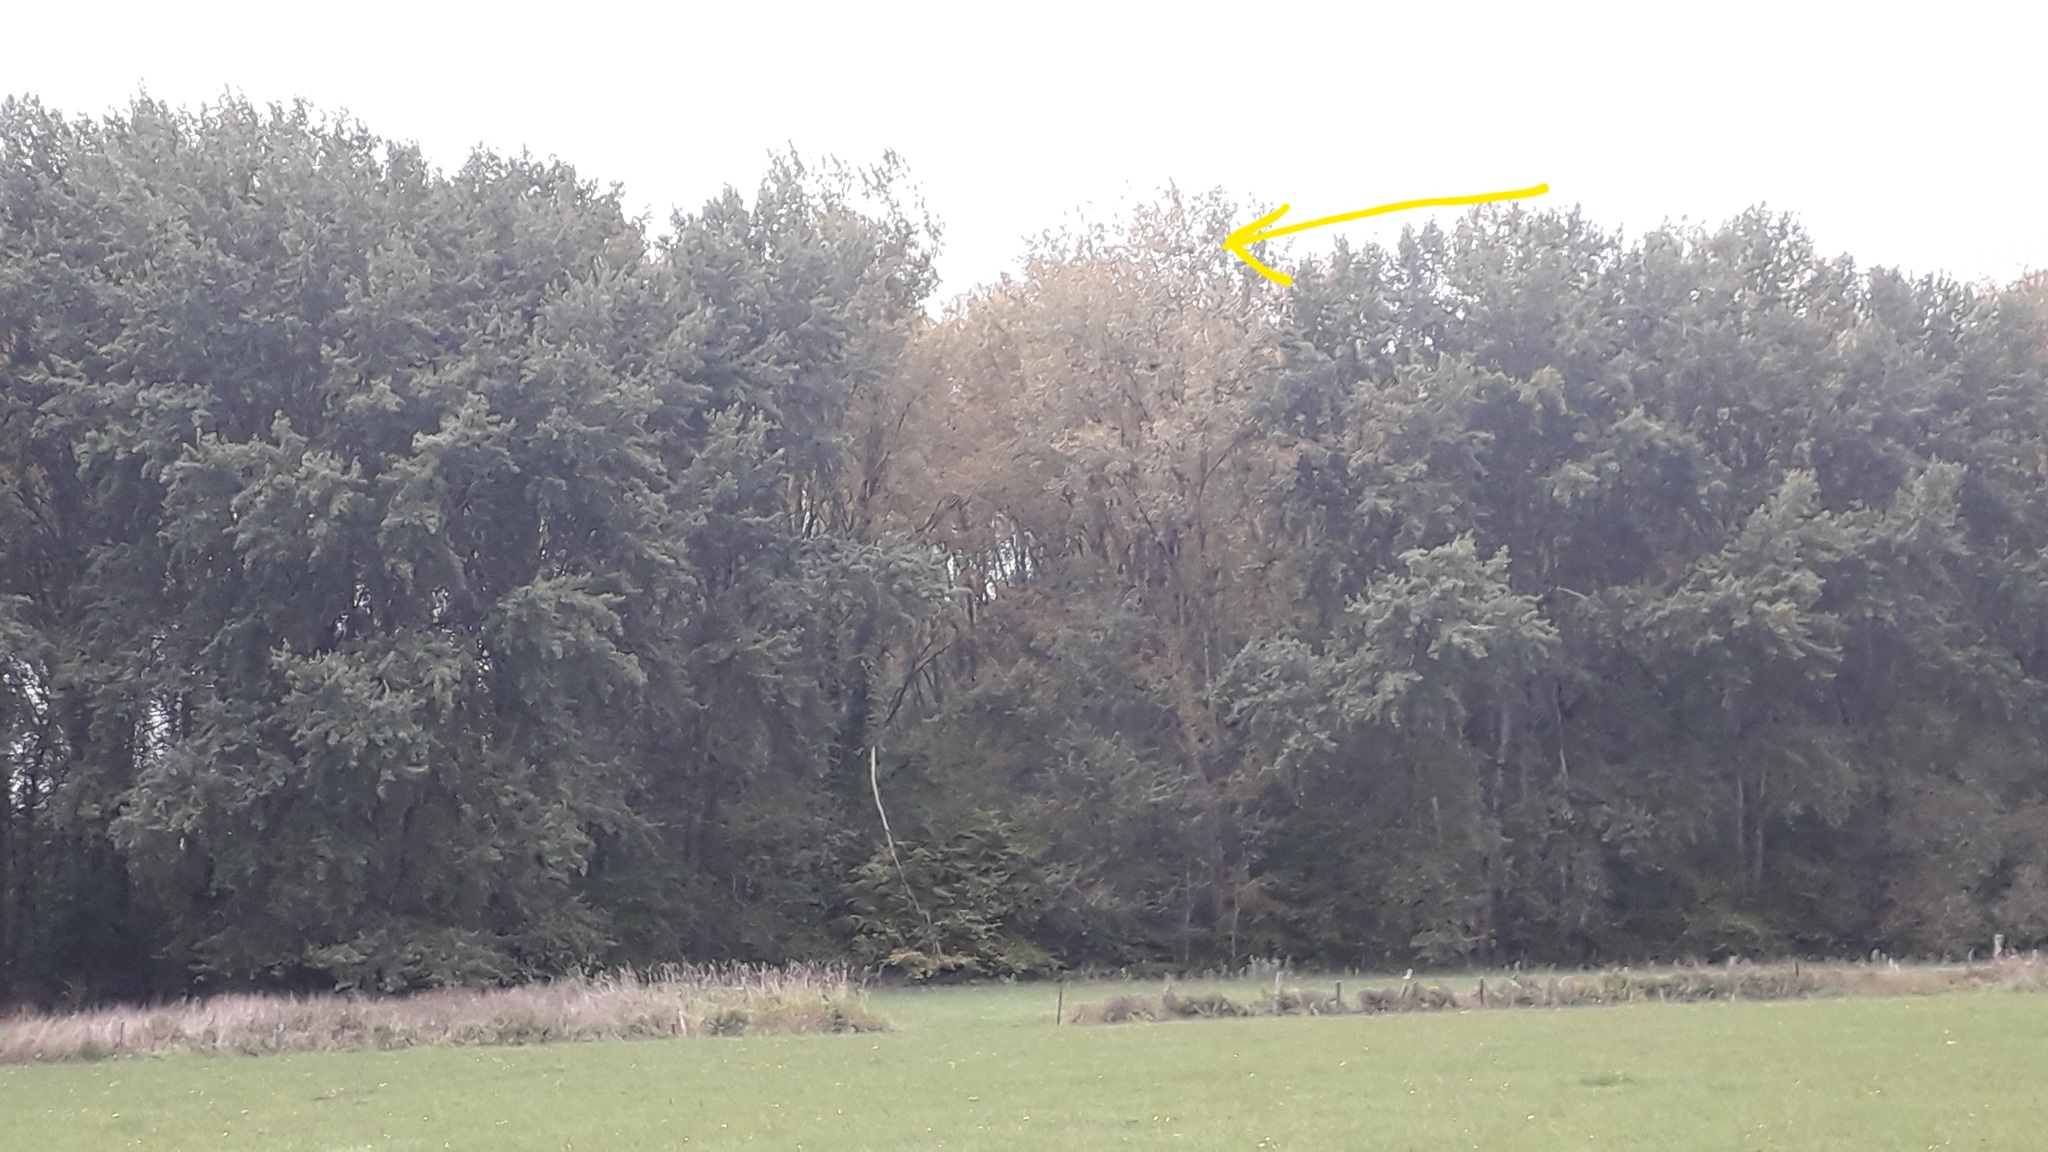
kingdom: Animalia
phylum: Arthropoda
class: Insecta
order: Hymenoptera
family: Vespidae
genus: Vespa
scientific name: Vespa velutina
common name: Asian hornet
